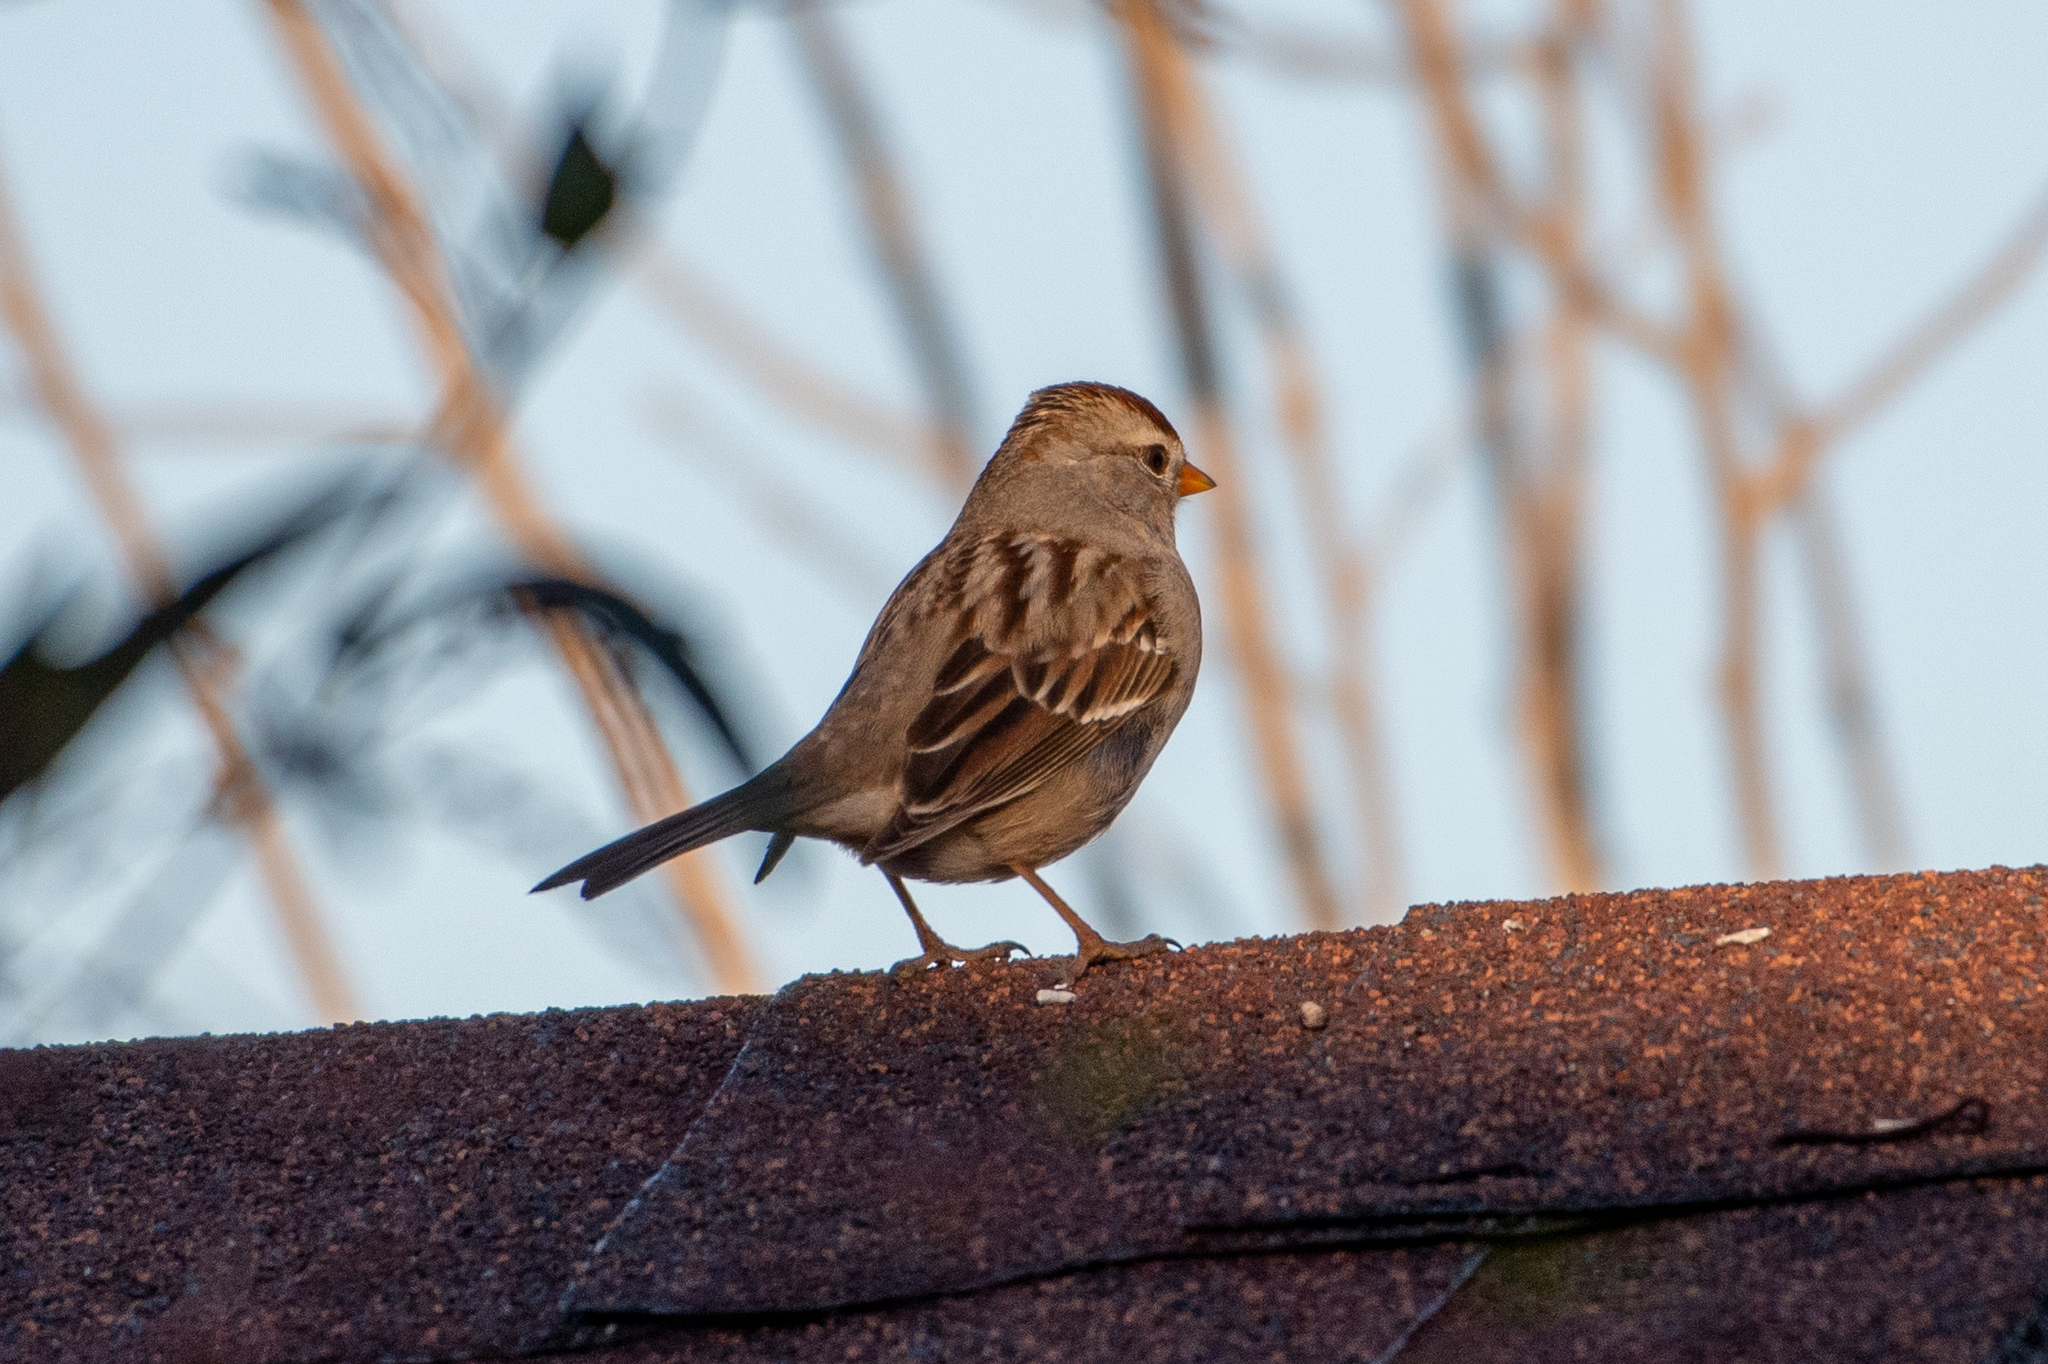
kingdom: Animalia
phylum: Chordata
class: Aves
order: Passeriformes
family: Passerellidae
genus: Zonotrichia
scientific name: Zonotrichia leucophrys
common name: White-crowned sparrow
